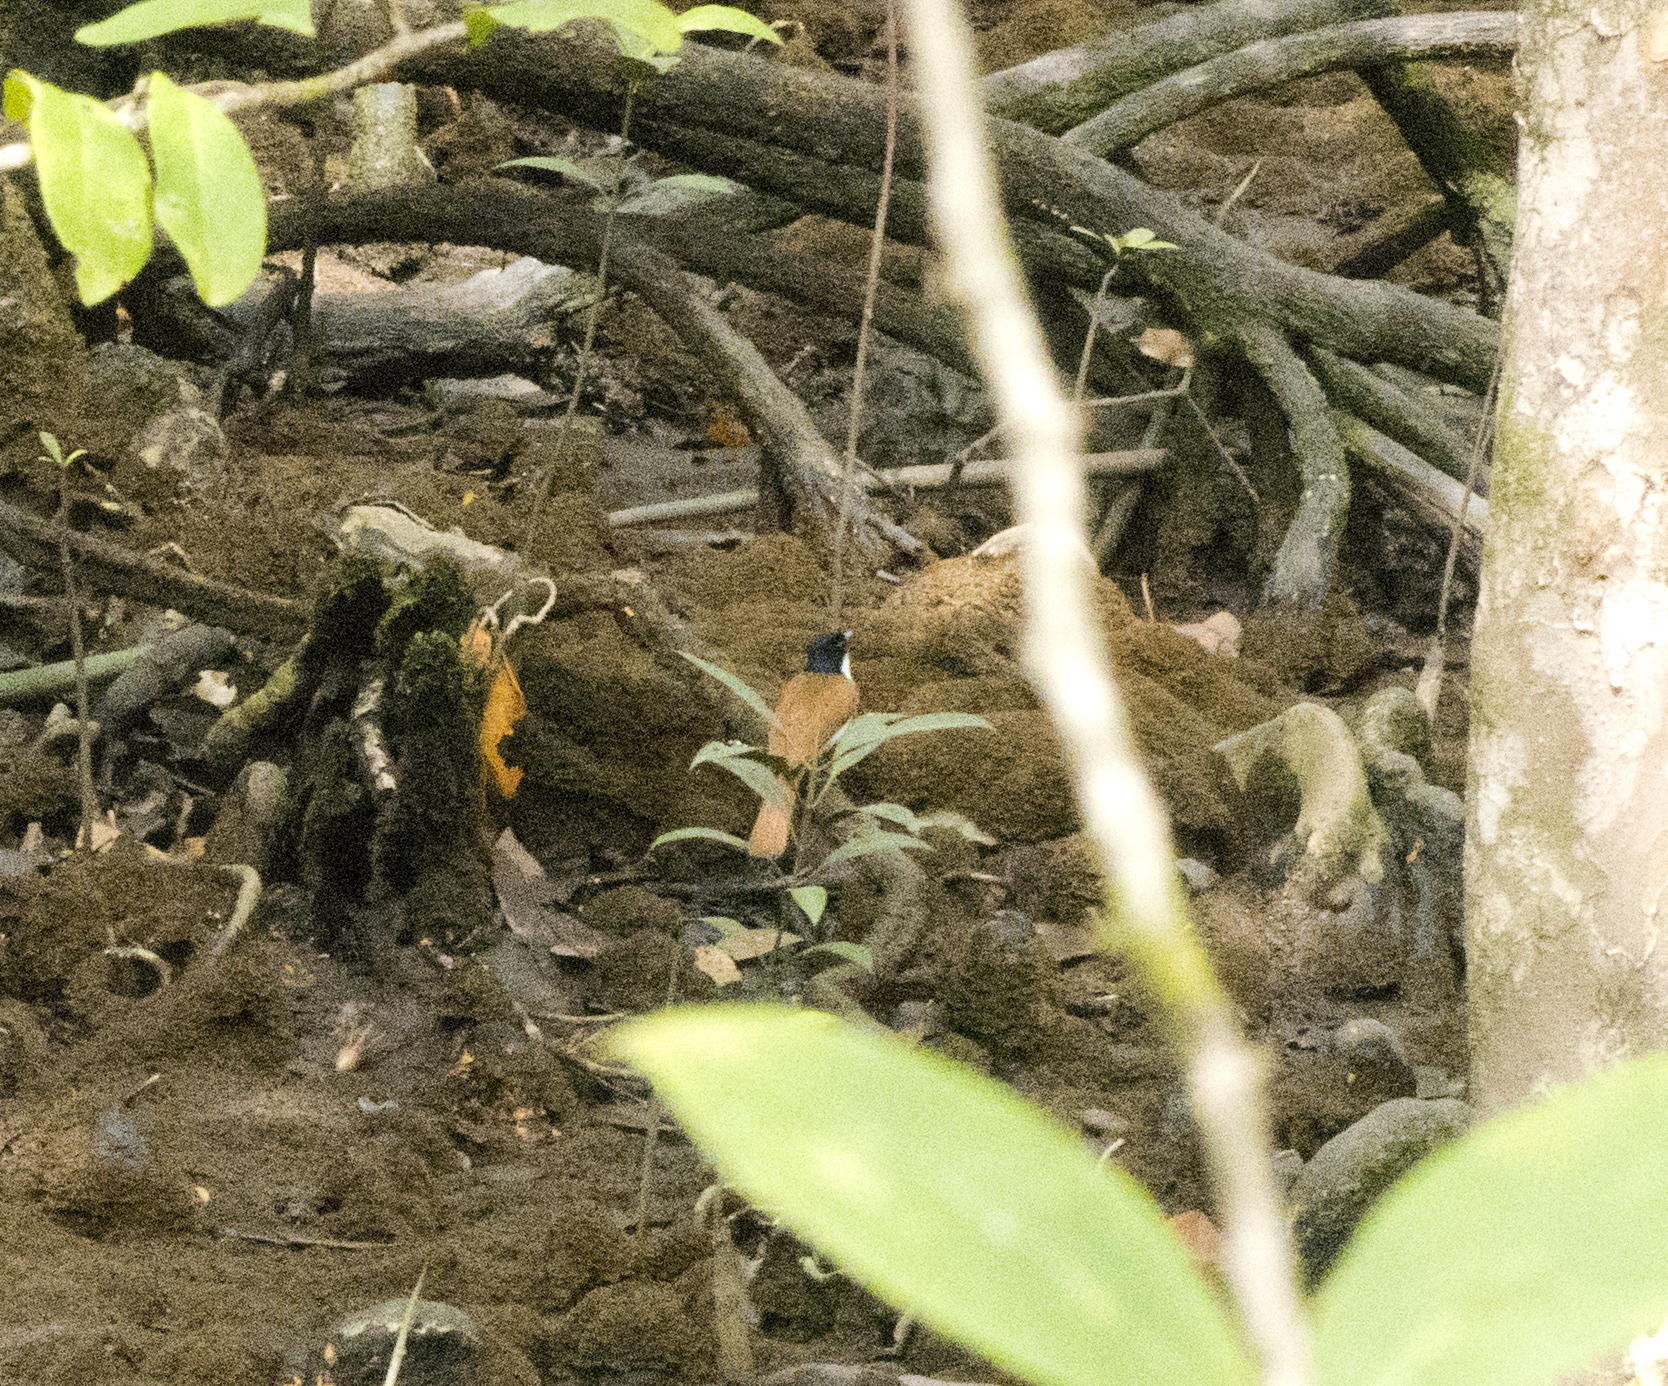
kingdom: Animalia
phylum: Chordata
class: Aves
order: Passeriformes
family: Monarchidae
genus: Myiagra
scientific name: Myiagra alecto
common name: Shining flycatcher
